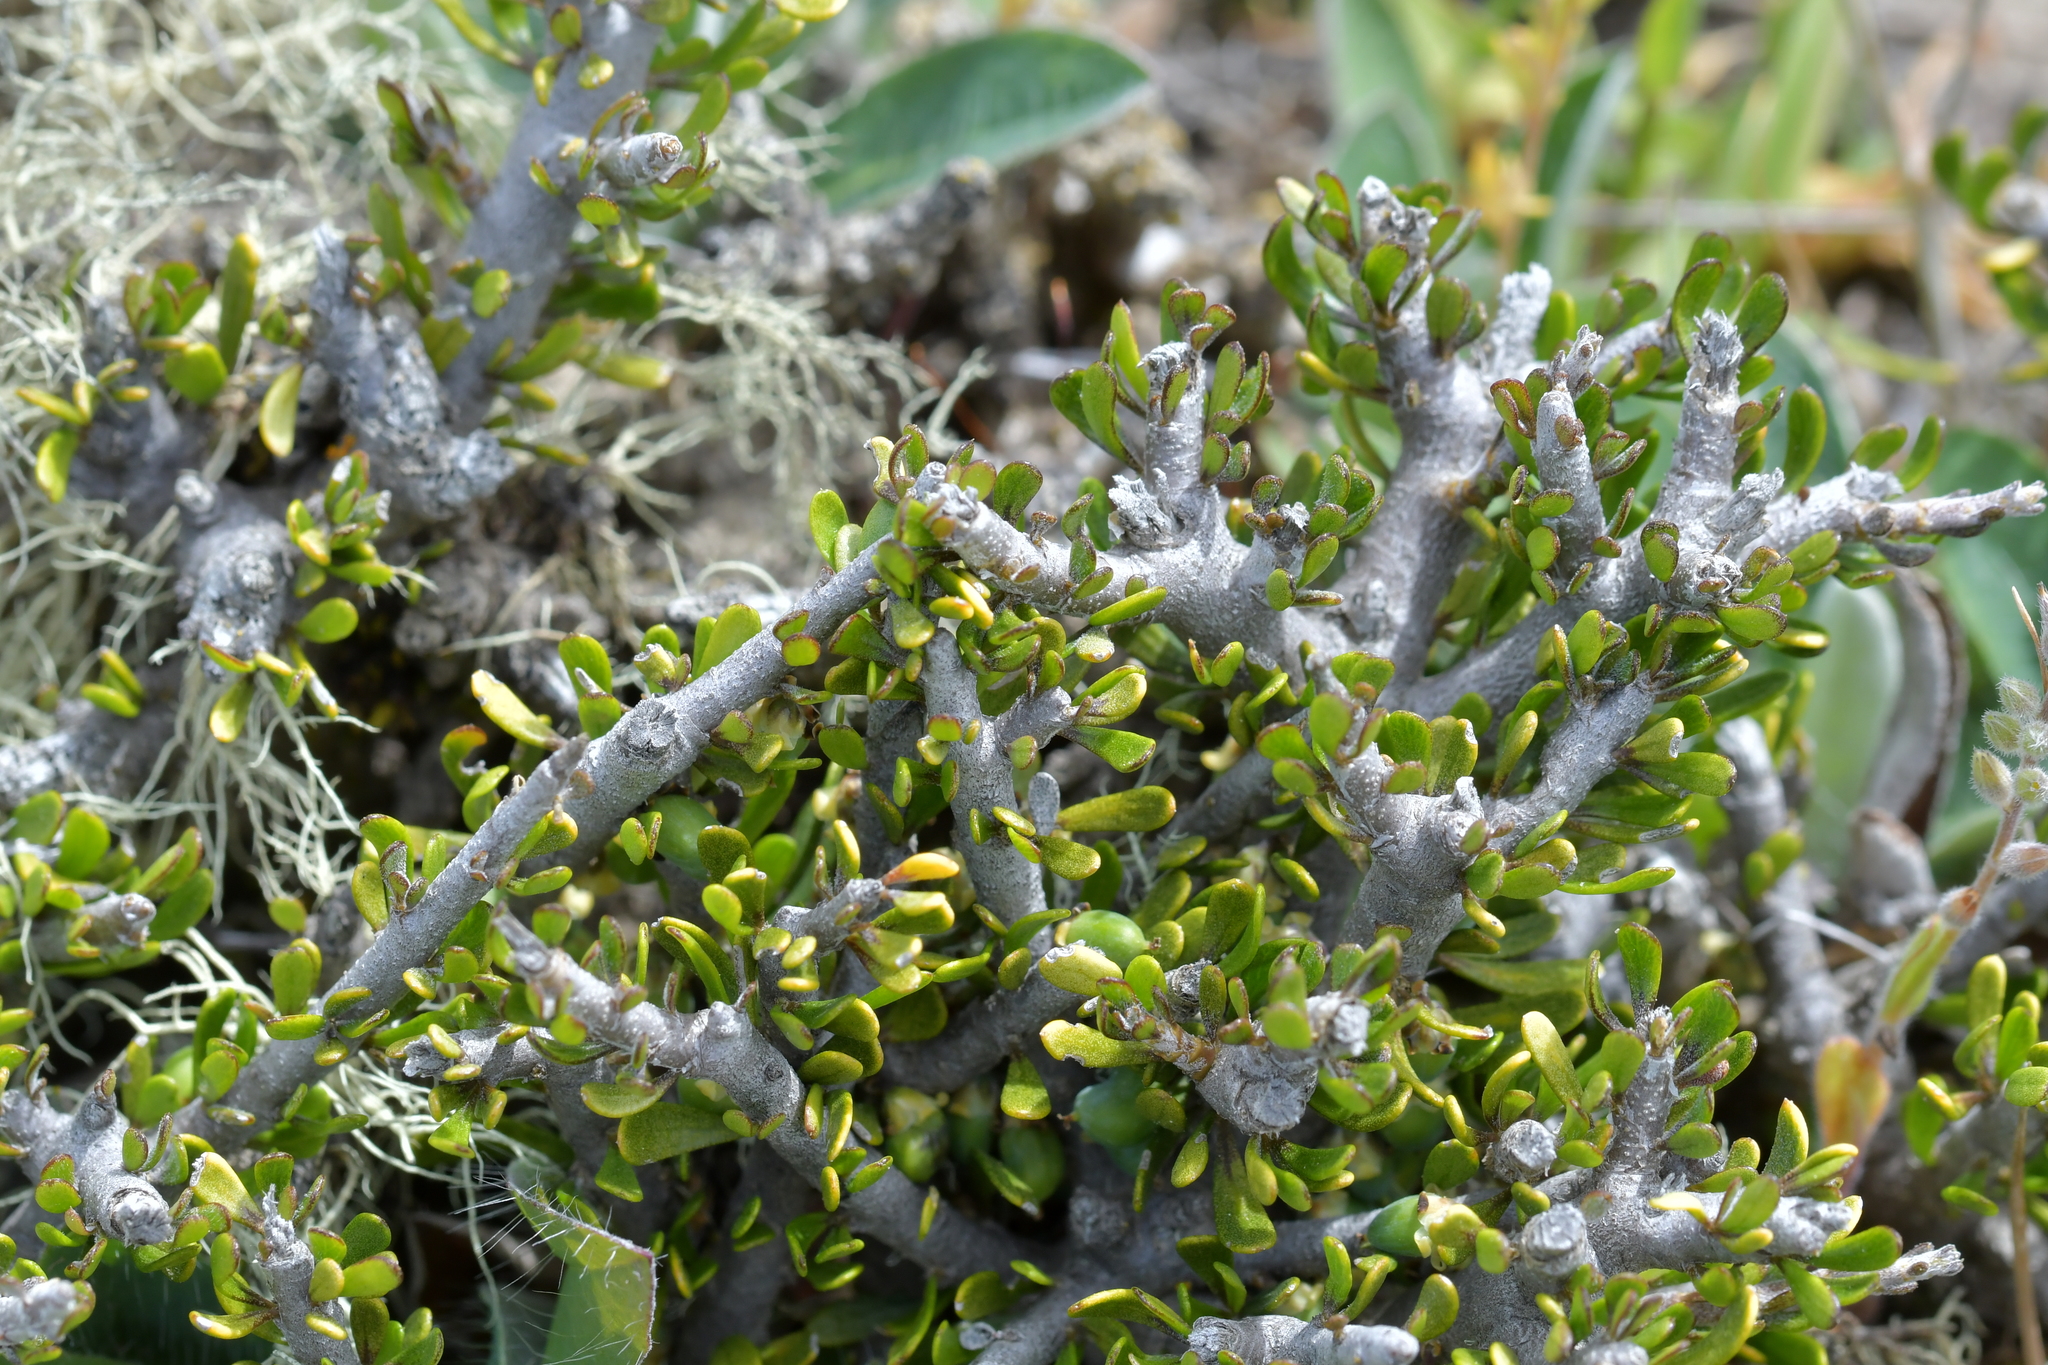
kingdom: Plantae
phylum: Tracheophyta
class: Magnoliopsida
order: Malpighiales
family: Violaceae
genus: Melicytus
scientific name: Melicytus alpinus
